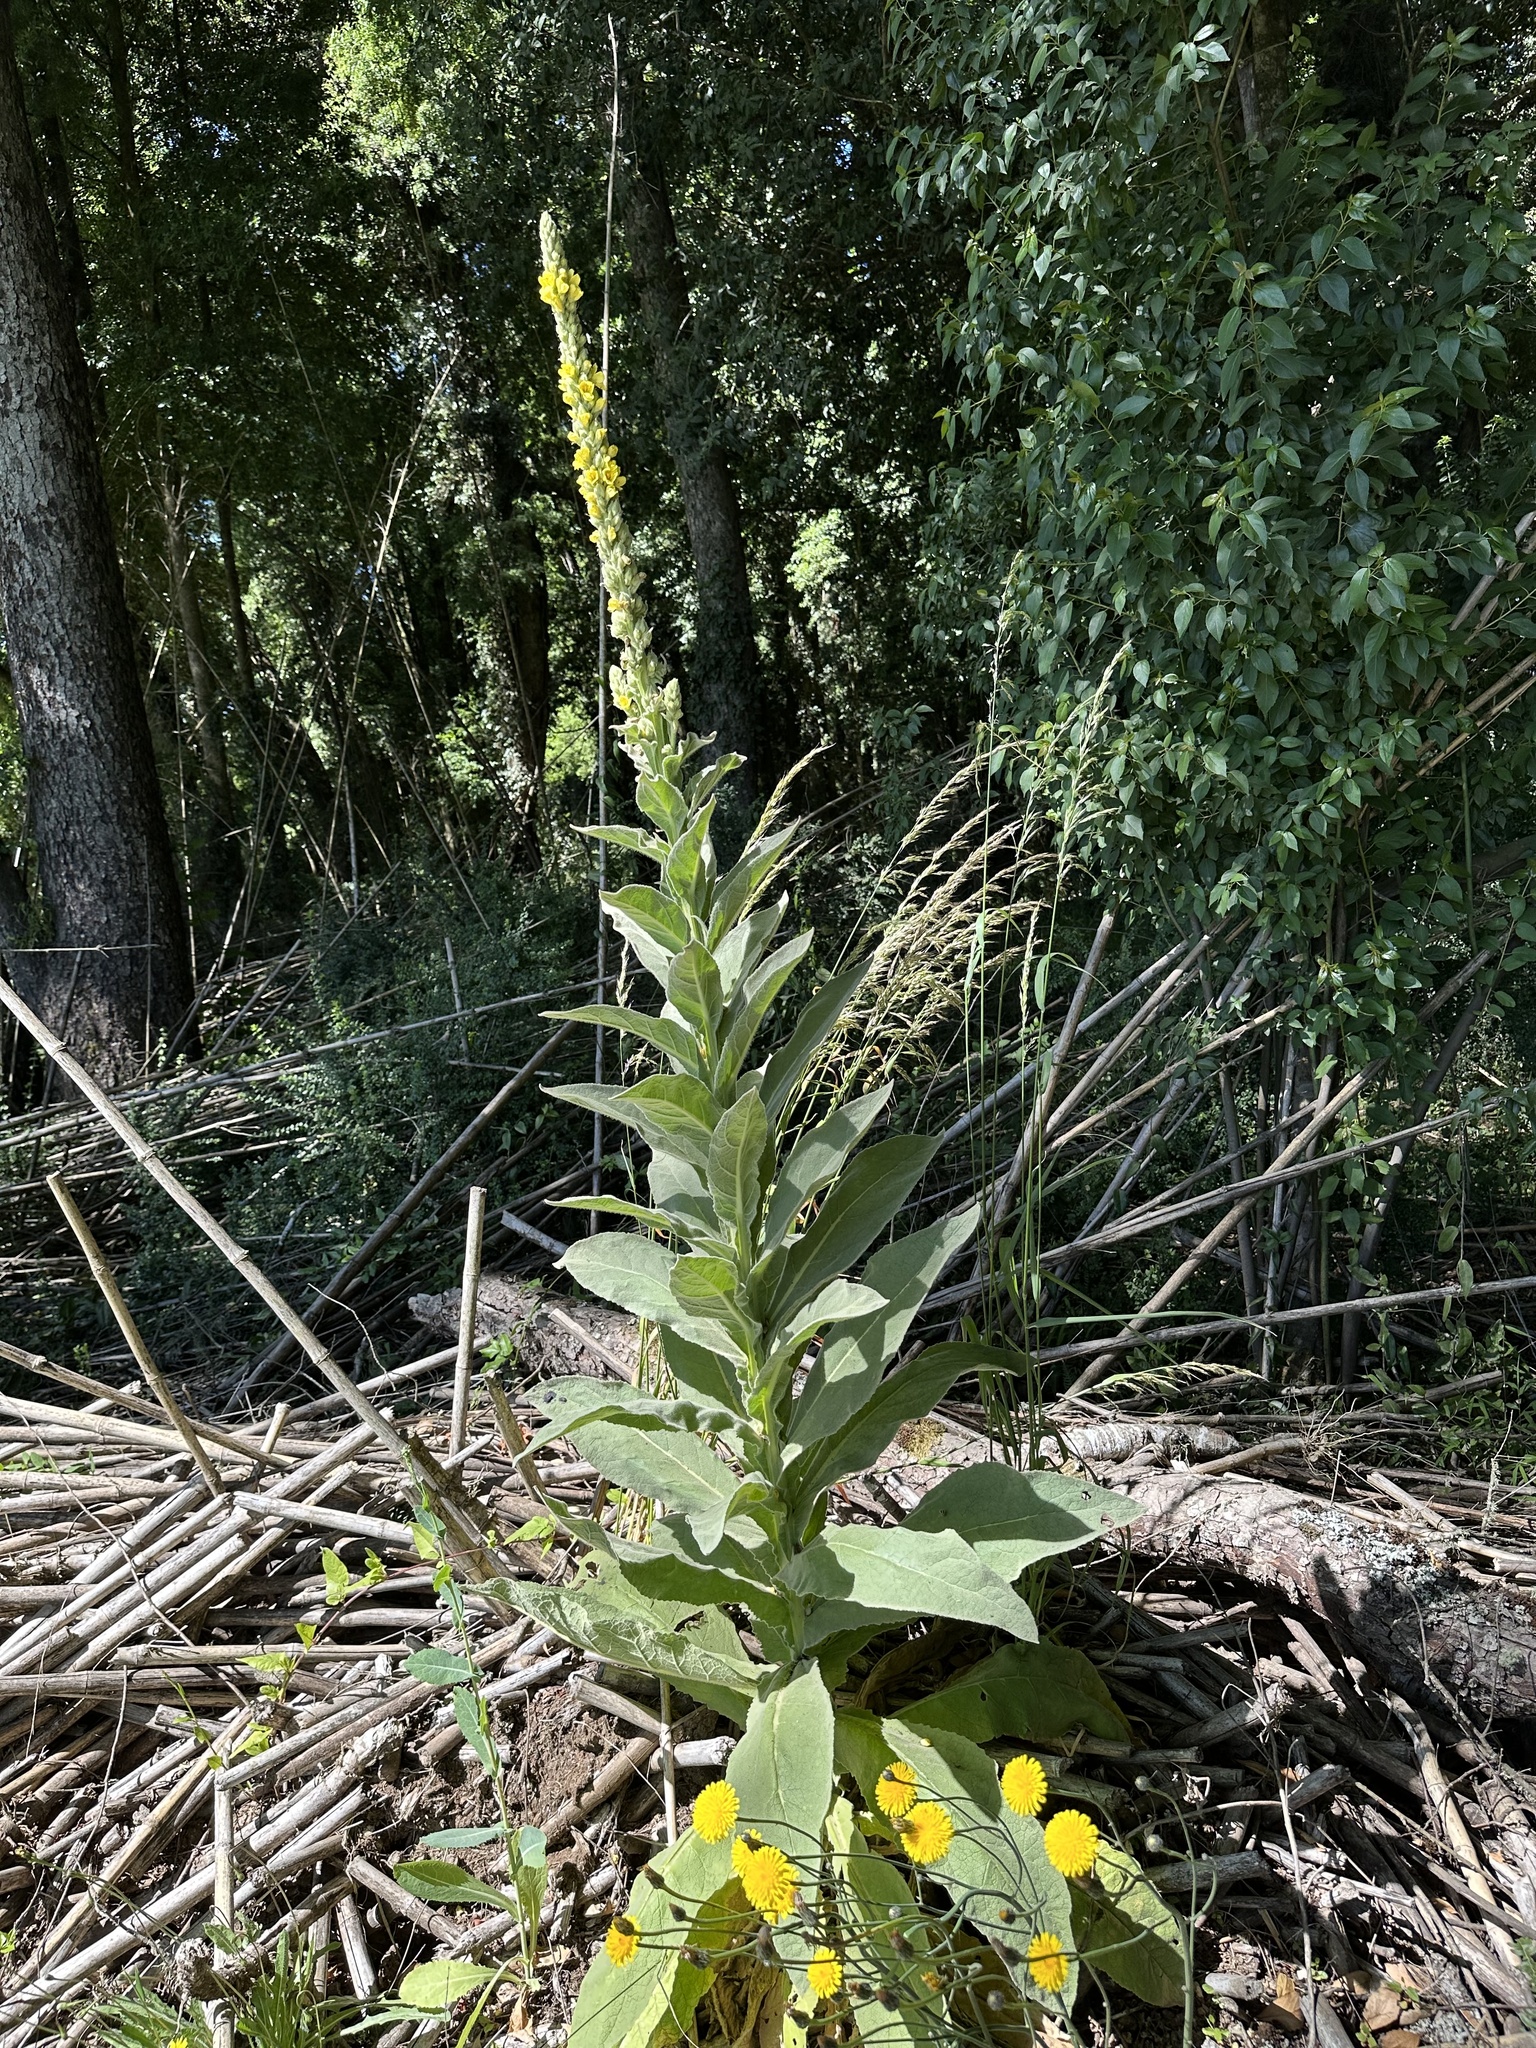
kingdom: Plantae
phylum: Tracheophyta
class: Magnoliopsida
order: Lamiales
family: Scrophulariaceae
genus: Verbascum
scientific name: Verbascum thapsus
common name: Common mullein
